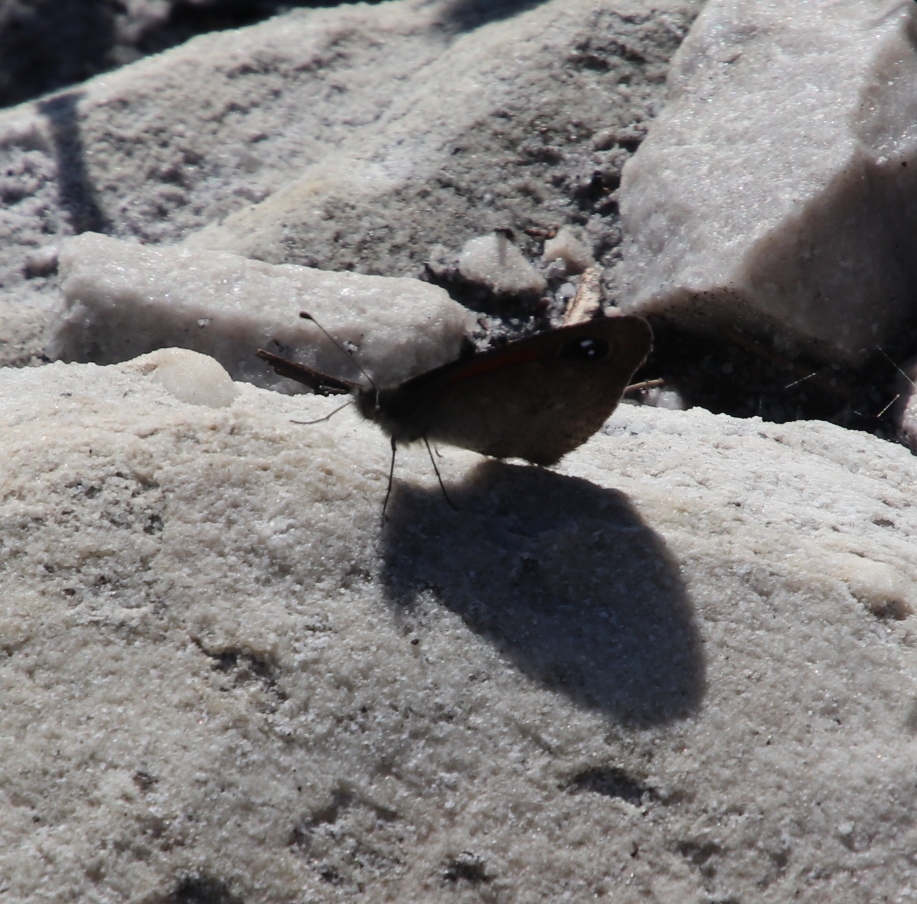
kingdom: Animalia
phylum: Arthropoda
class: Insecta
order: Lepidoptera
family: Nymphalidae
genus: Stygionympha
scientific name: Stygionympha vigilans
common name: Western hillside brown
